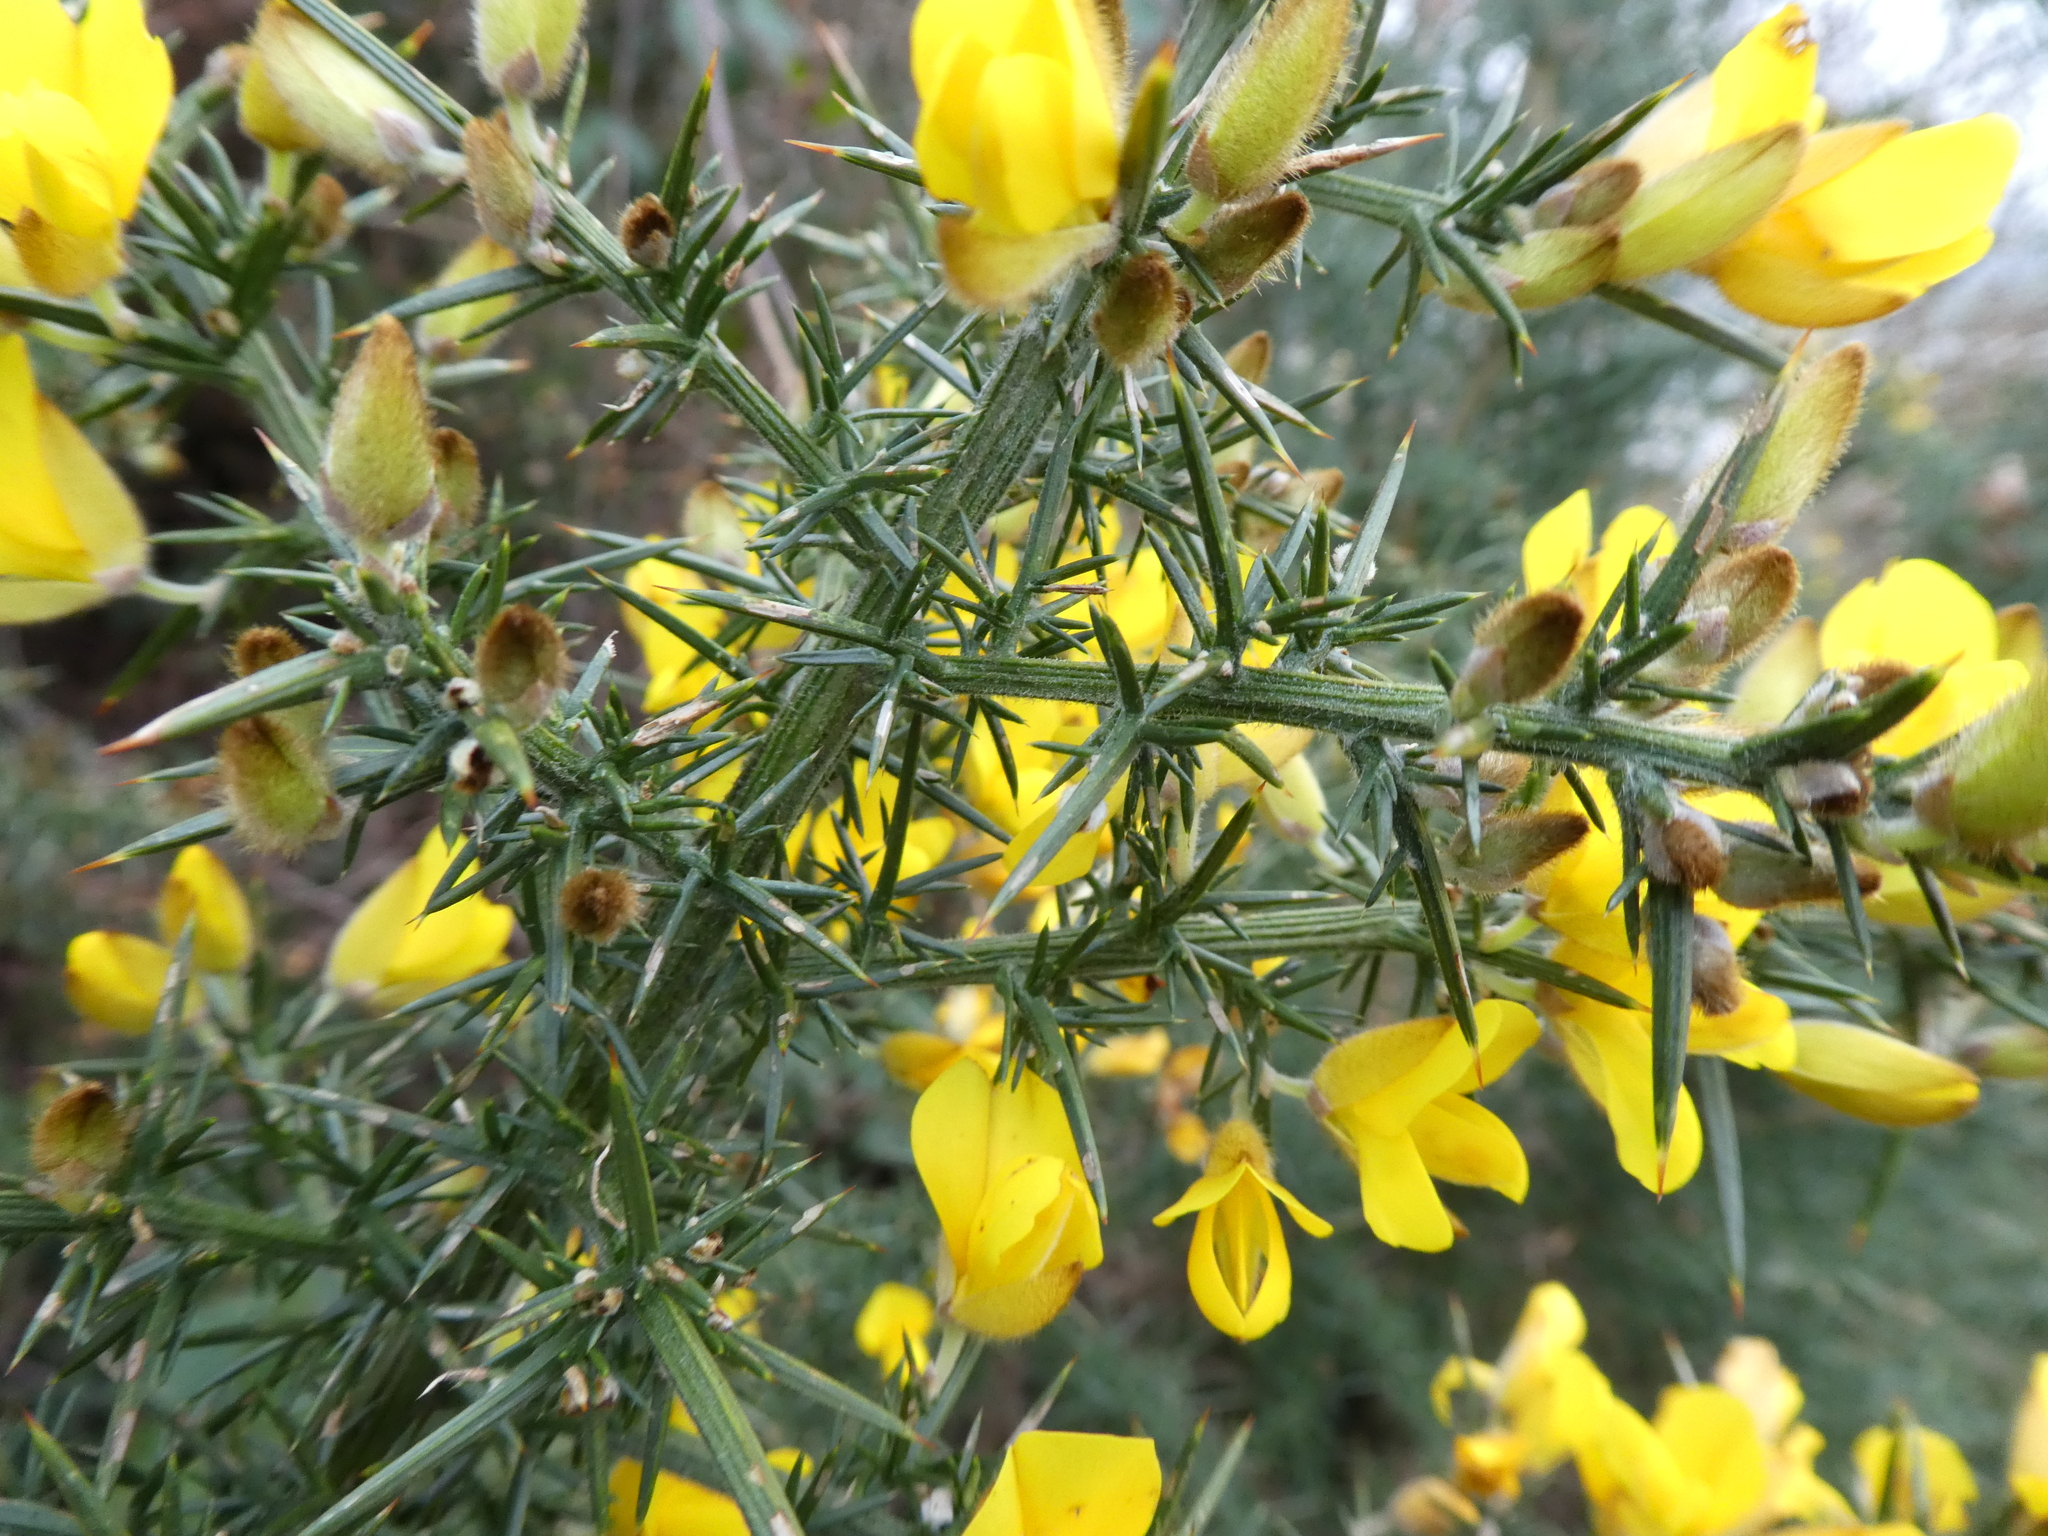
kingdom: Plantae
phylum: Tracheophyta
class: Magnoliopsida
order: Fabales
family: Fabaceae
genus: Ulex
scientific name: Ulex europaeus
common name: Common gorse
